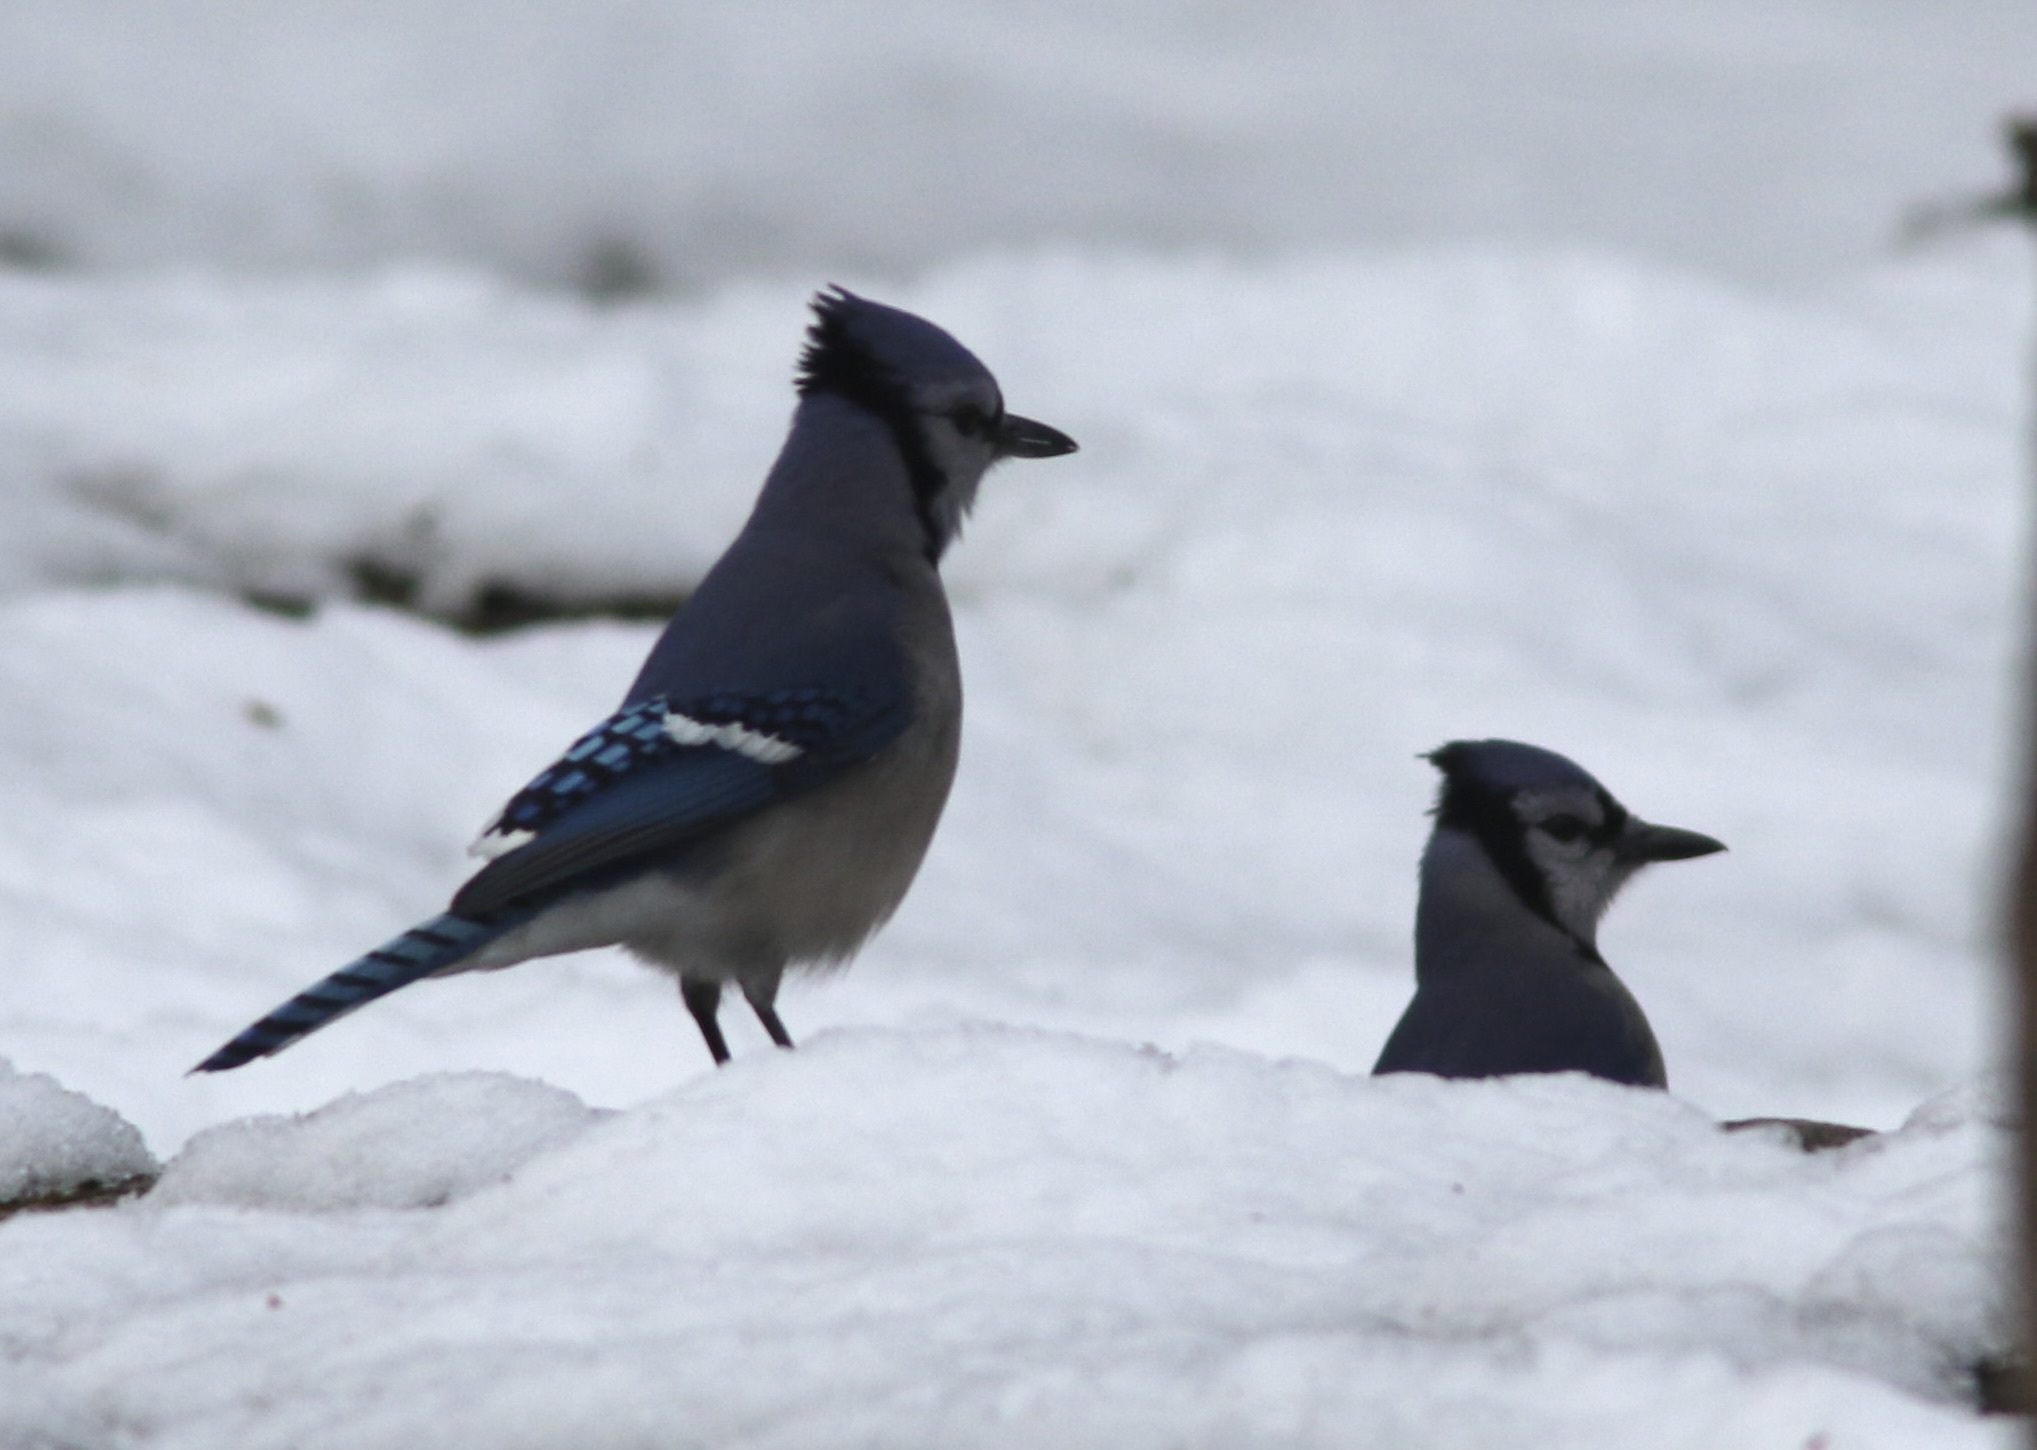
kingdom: Animalia
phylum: Chordata
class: Aves
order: Passeriformes
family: Corvidae
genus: Cyanocitta
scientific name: Cyanocitta cristata
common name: Blue jay
